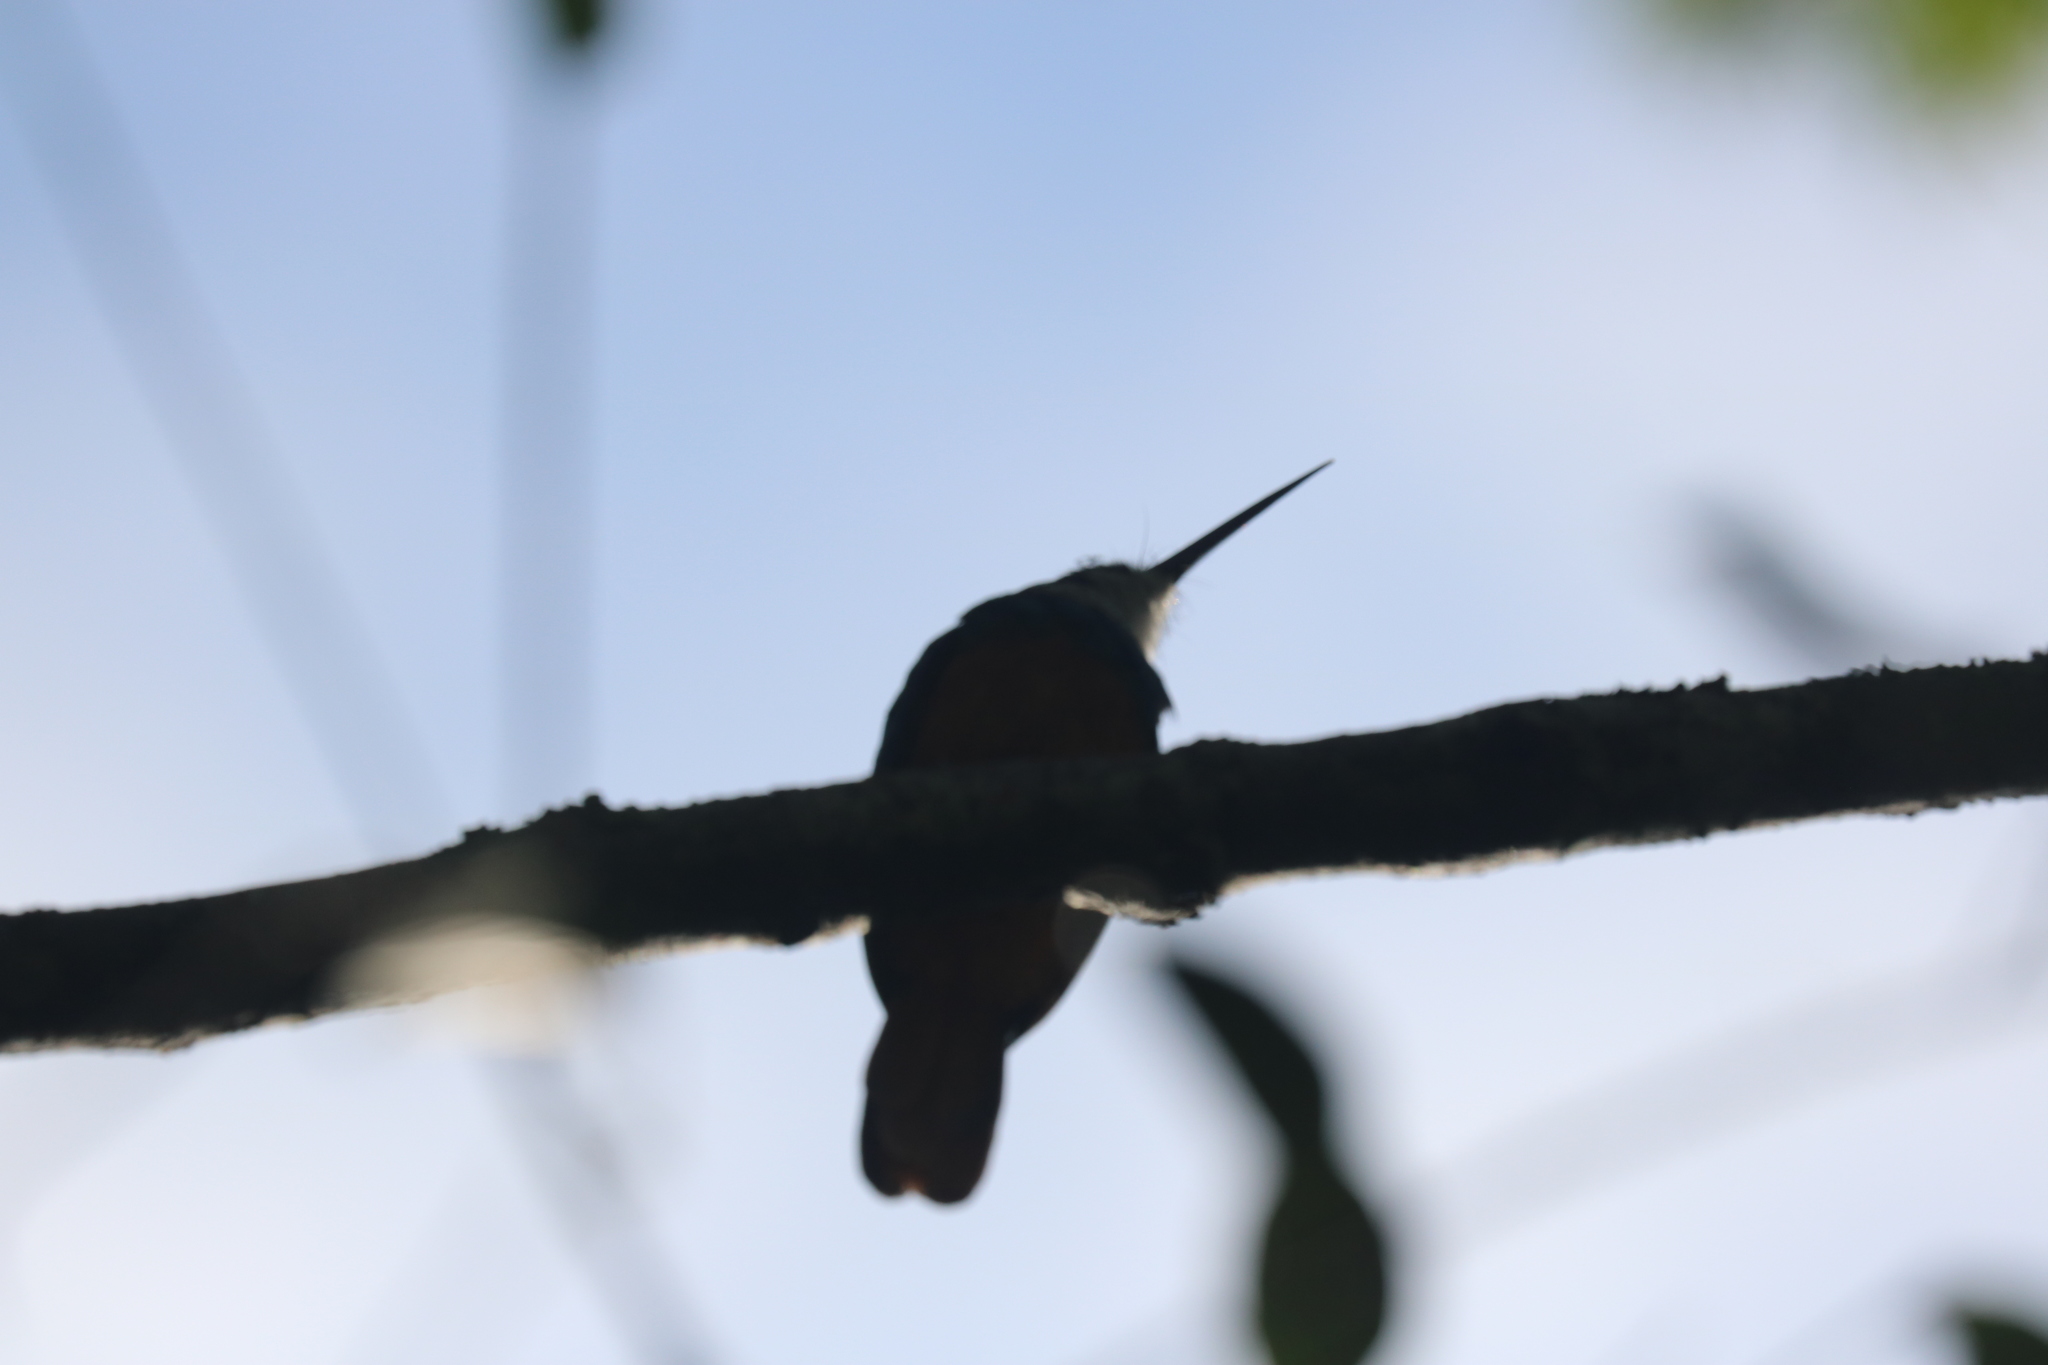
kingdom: Animalia
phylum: Chordata
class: Aves
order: Piciformes
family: Galbulidae
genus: Galbula
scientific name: Galbula ruficauda
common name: Rufous-tailed jacamar
